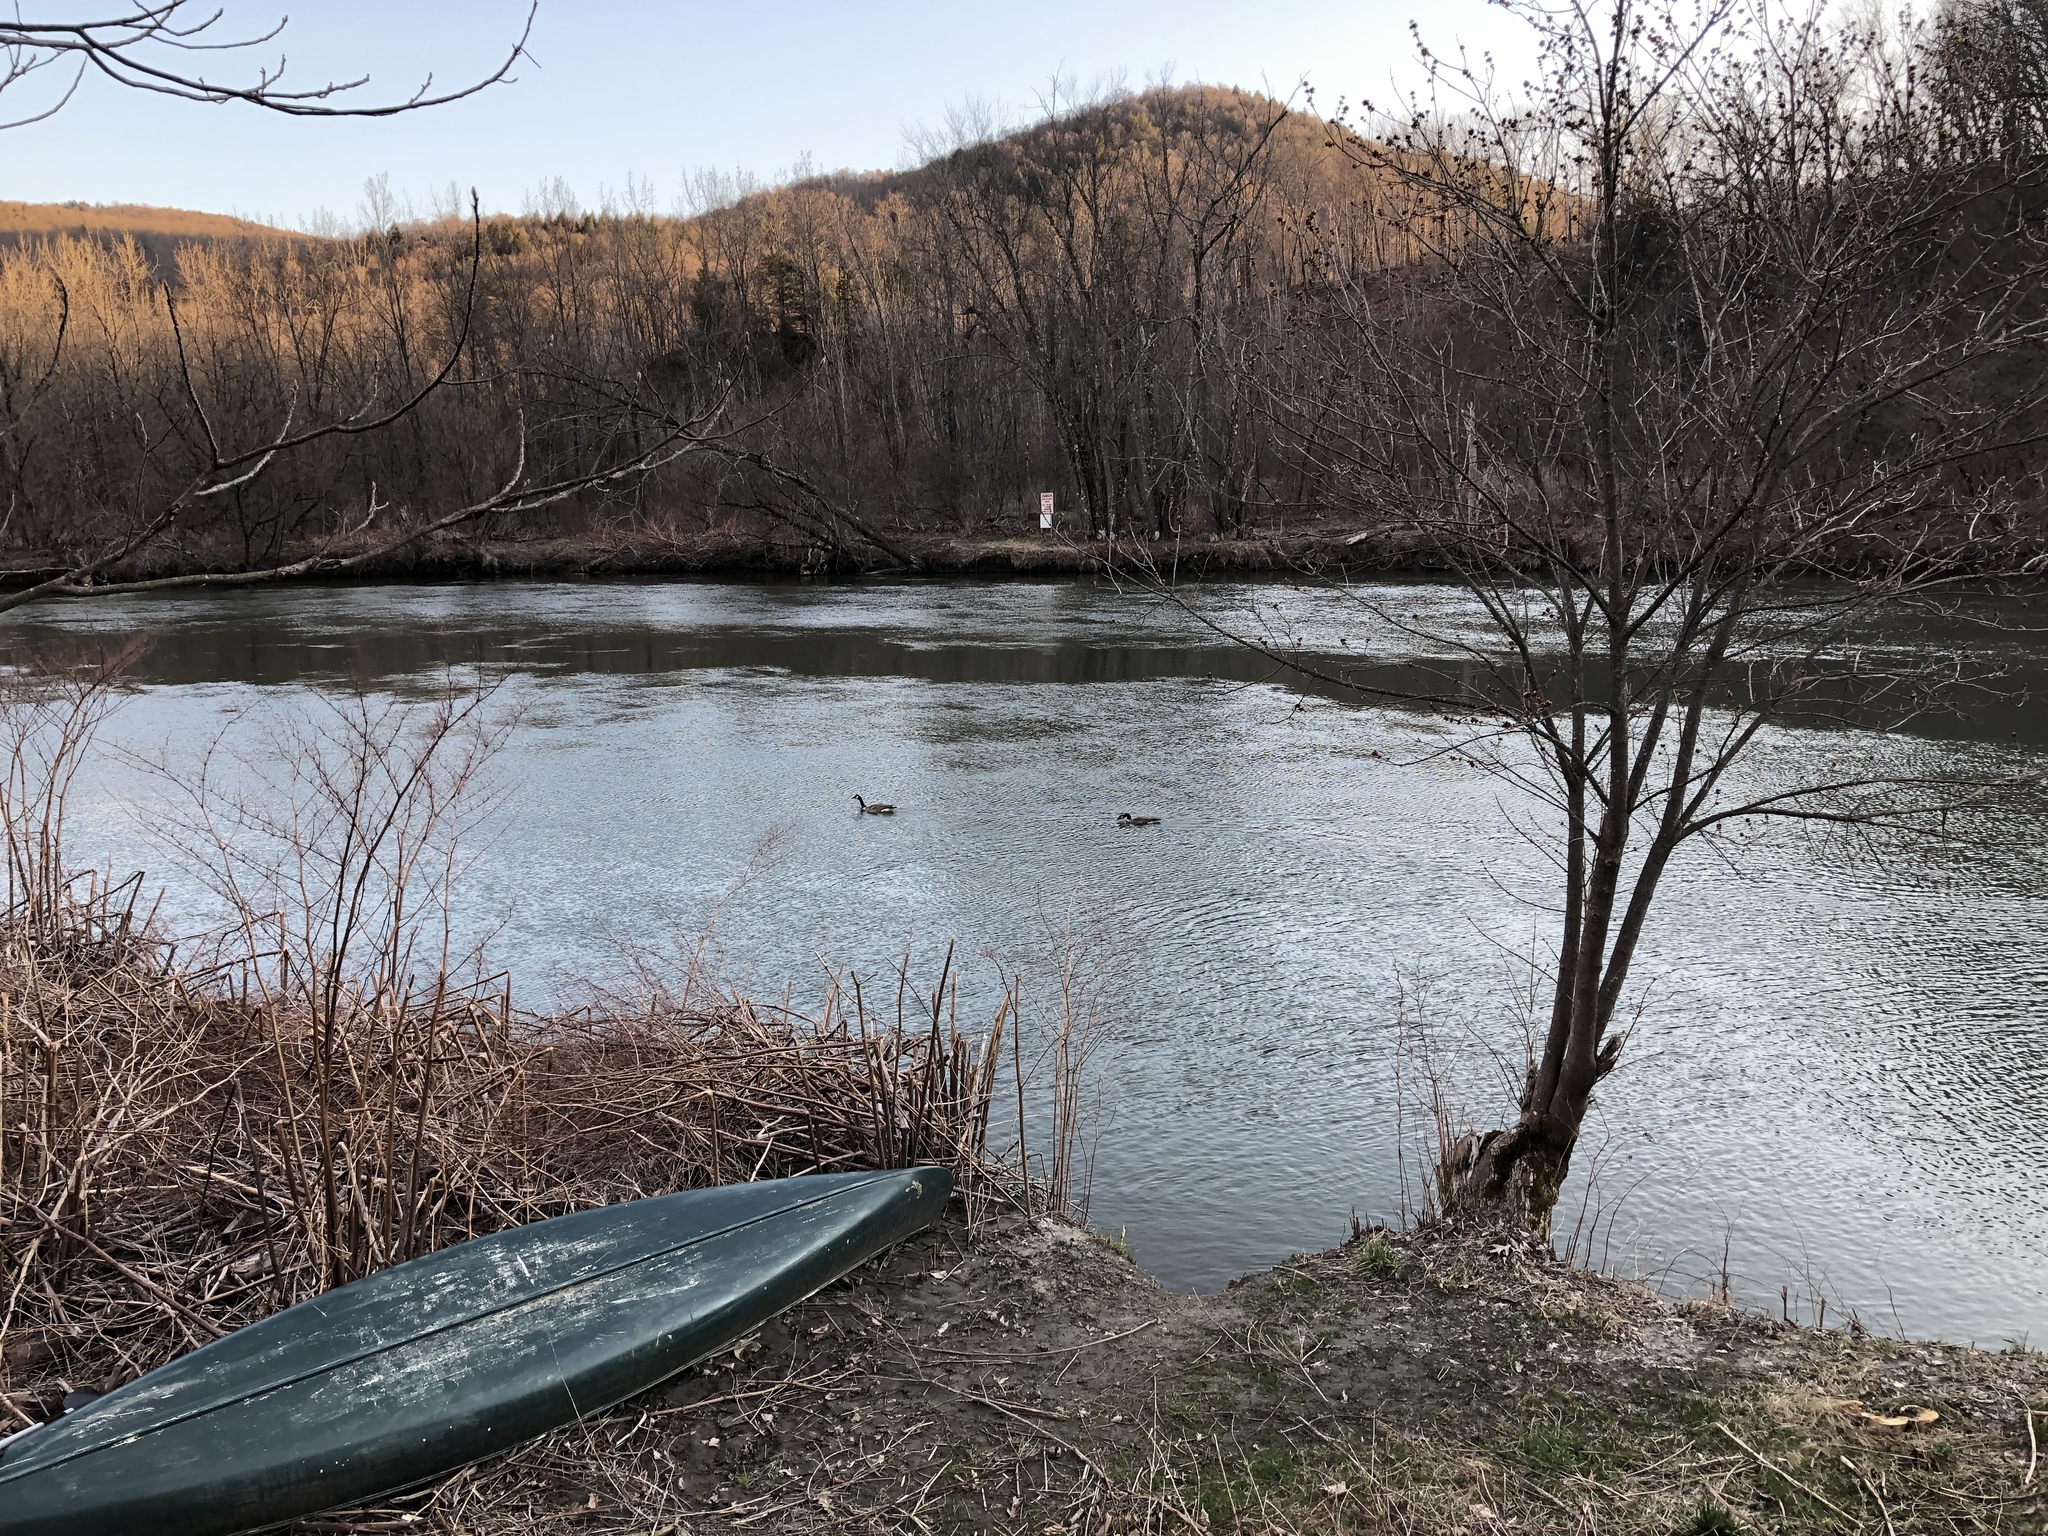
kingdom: Animalia
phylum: Chordata
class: Aves
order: Anseriformes
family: Anatidae
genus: Branta
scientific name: Branta canadensis
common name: Canada goose
